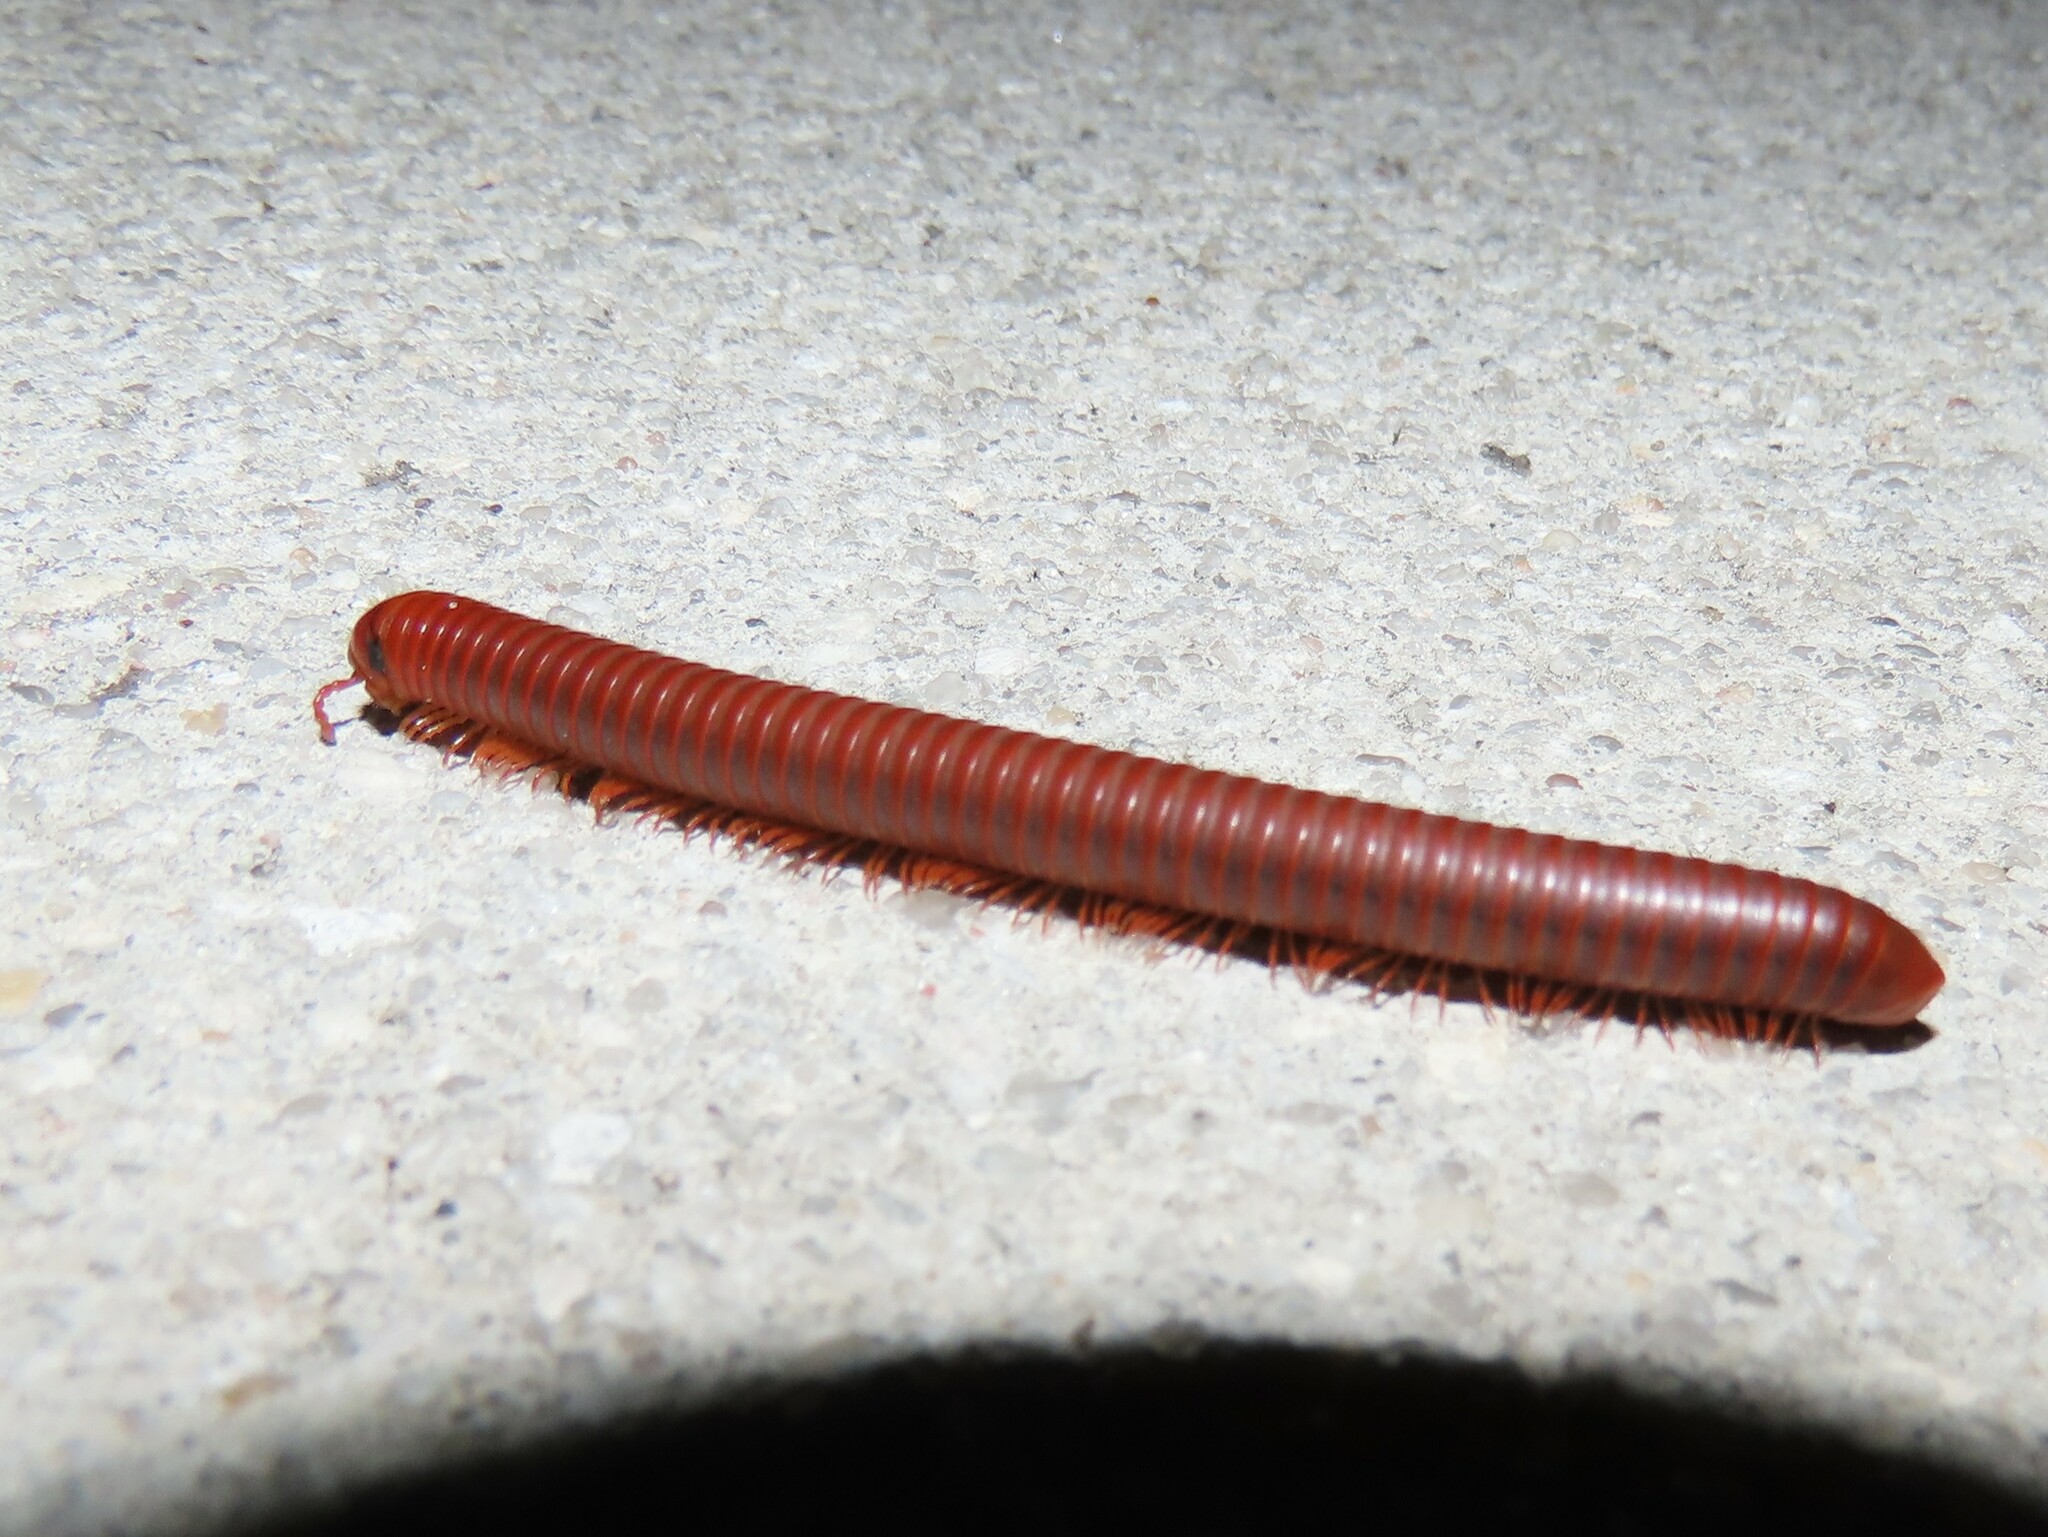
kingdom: Animalia
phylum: Arthropoda
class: Diplopoda
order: Spirobolida
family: Pachybolidae
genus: Trigoniulus
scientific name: Trigoniulus corallinus
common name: Millipede
